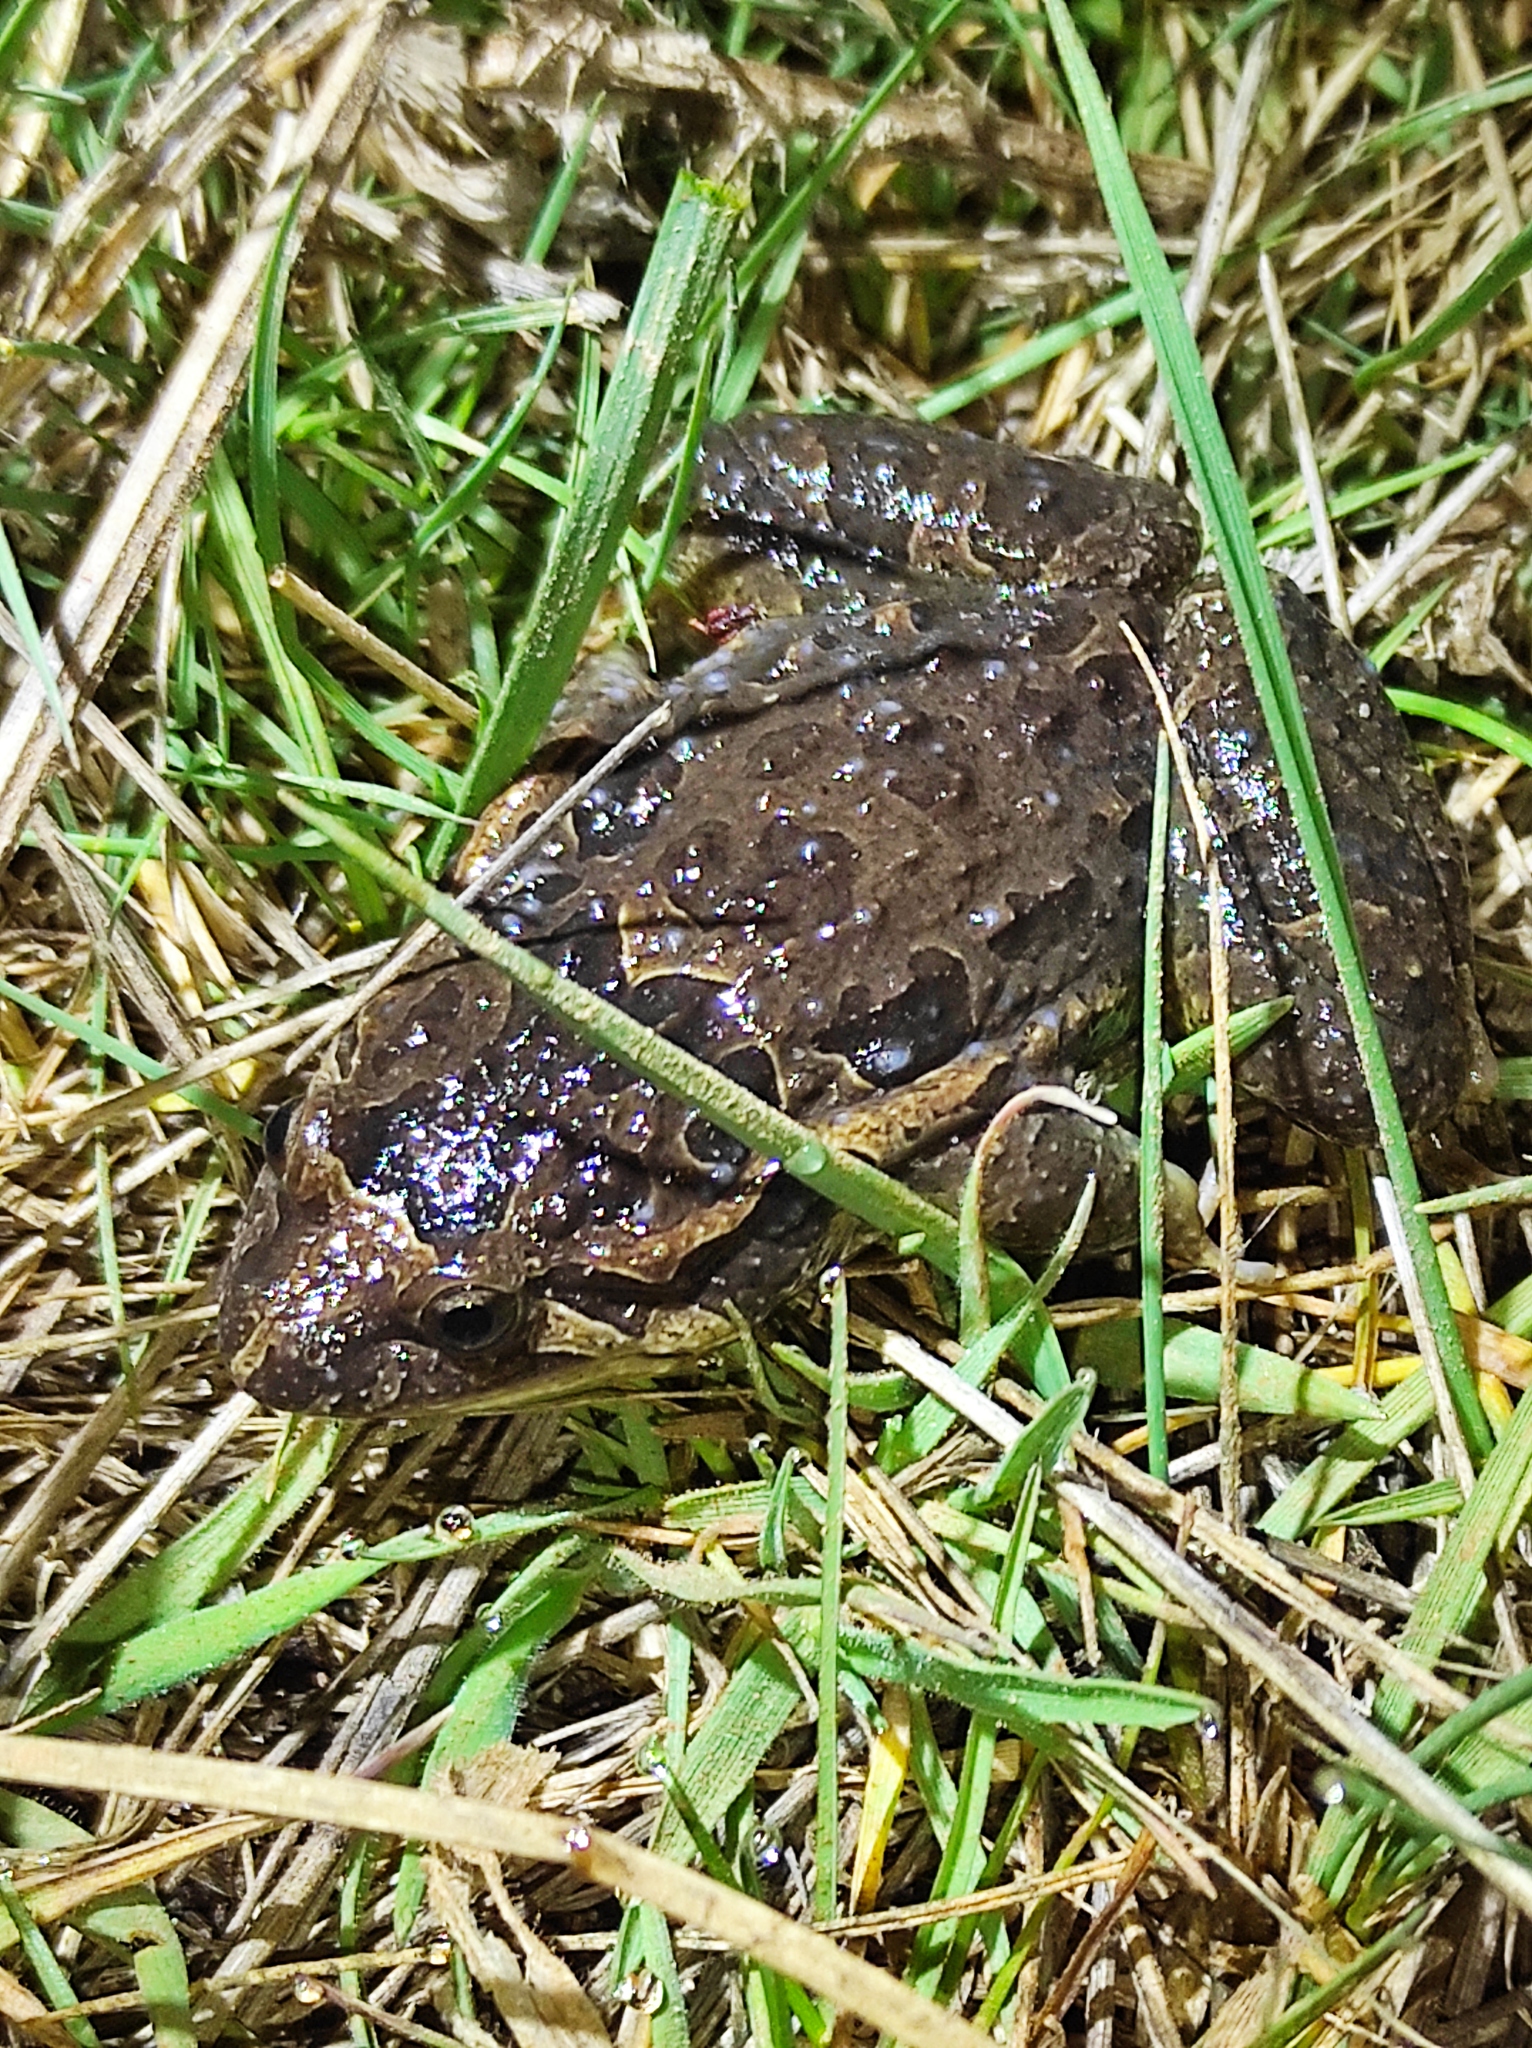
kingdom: Animalia
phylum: Chordata
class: Amphibia
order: Anura
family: Alytidae
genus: Discoglossus
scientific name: Discoglossus galganoi
